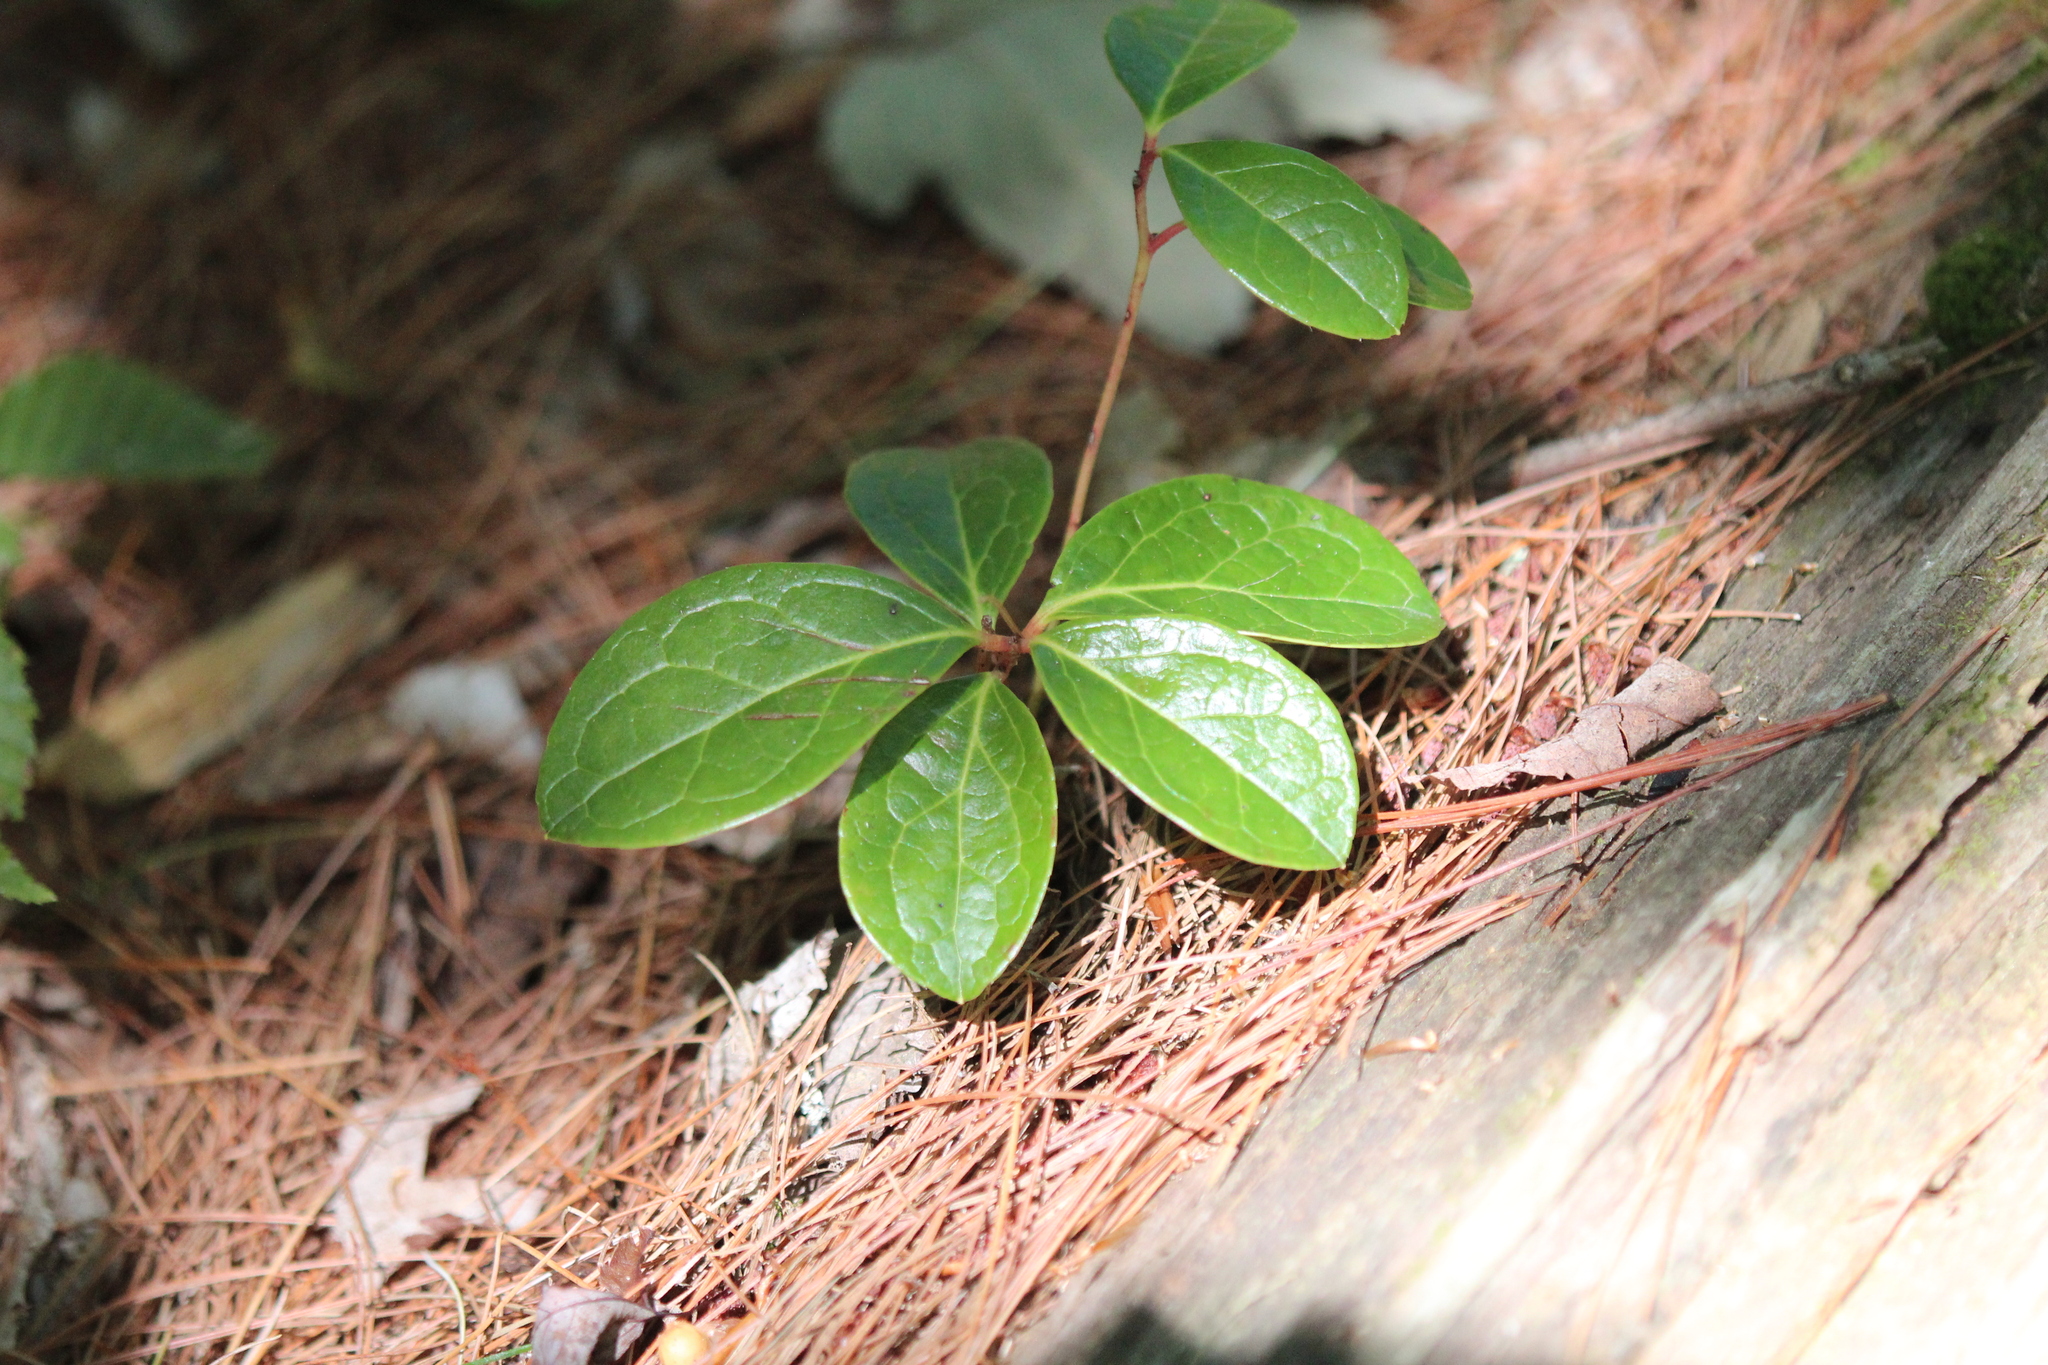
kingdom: Plantae
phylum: Tracheophyta
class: Magnoliopsida
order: Ericales
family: Ericaceae
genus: Gaultheria
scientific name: Gaultheria procumbens
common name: Checkerberry
